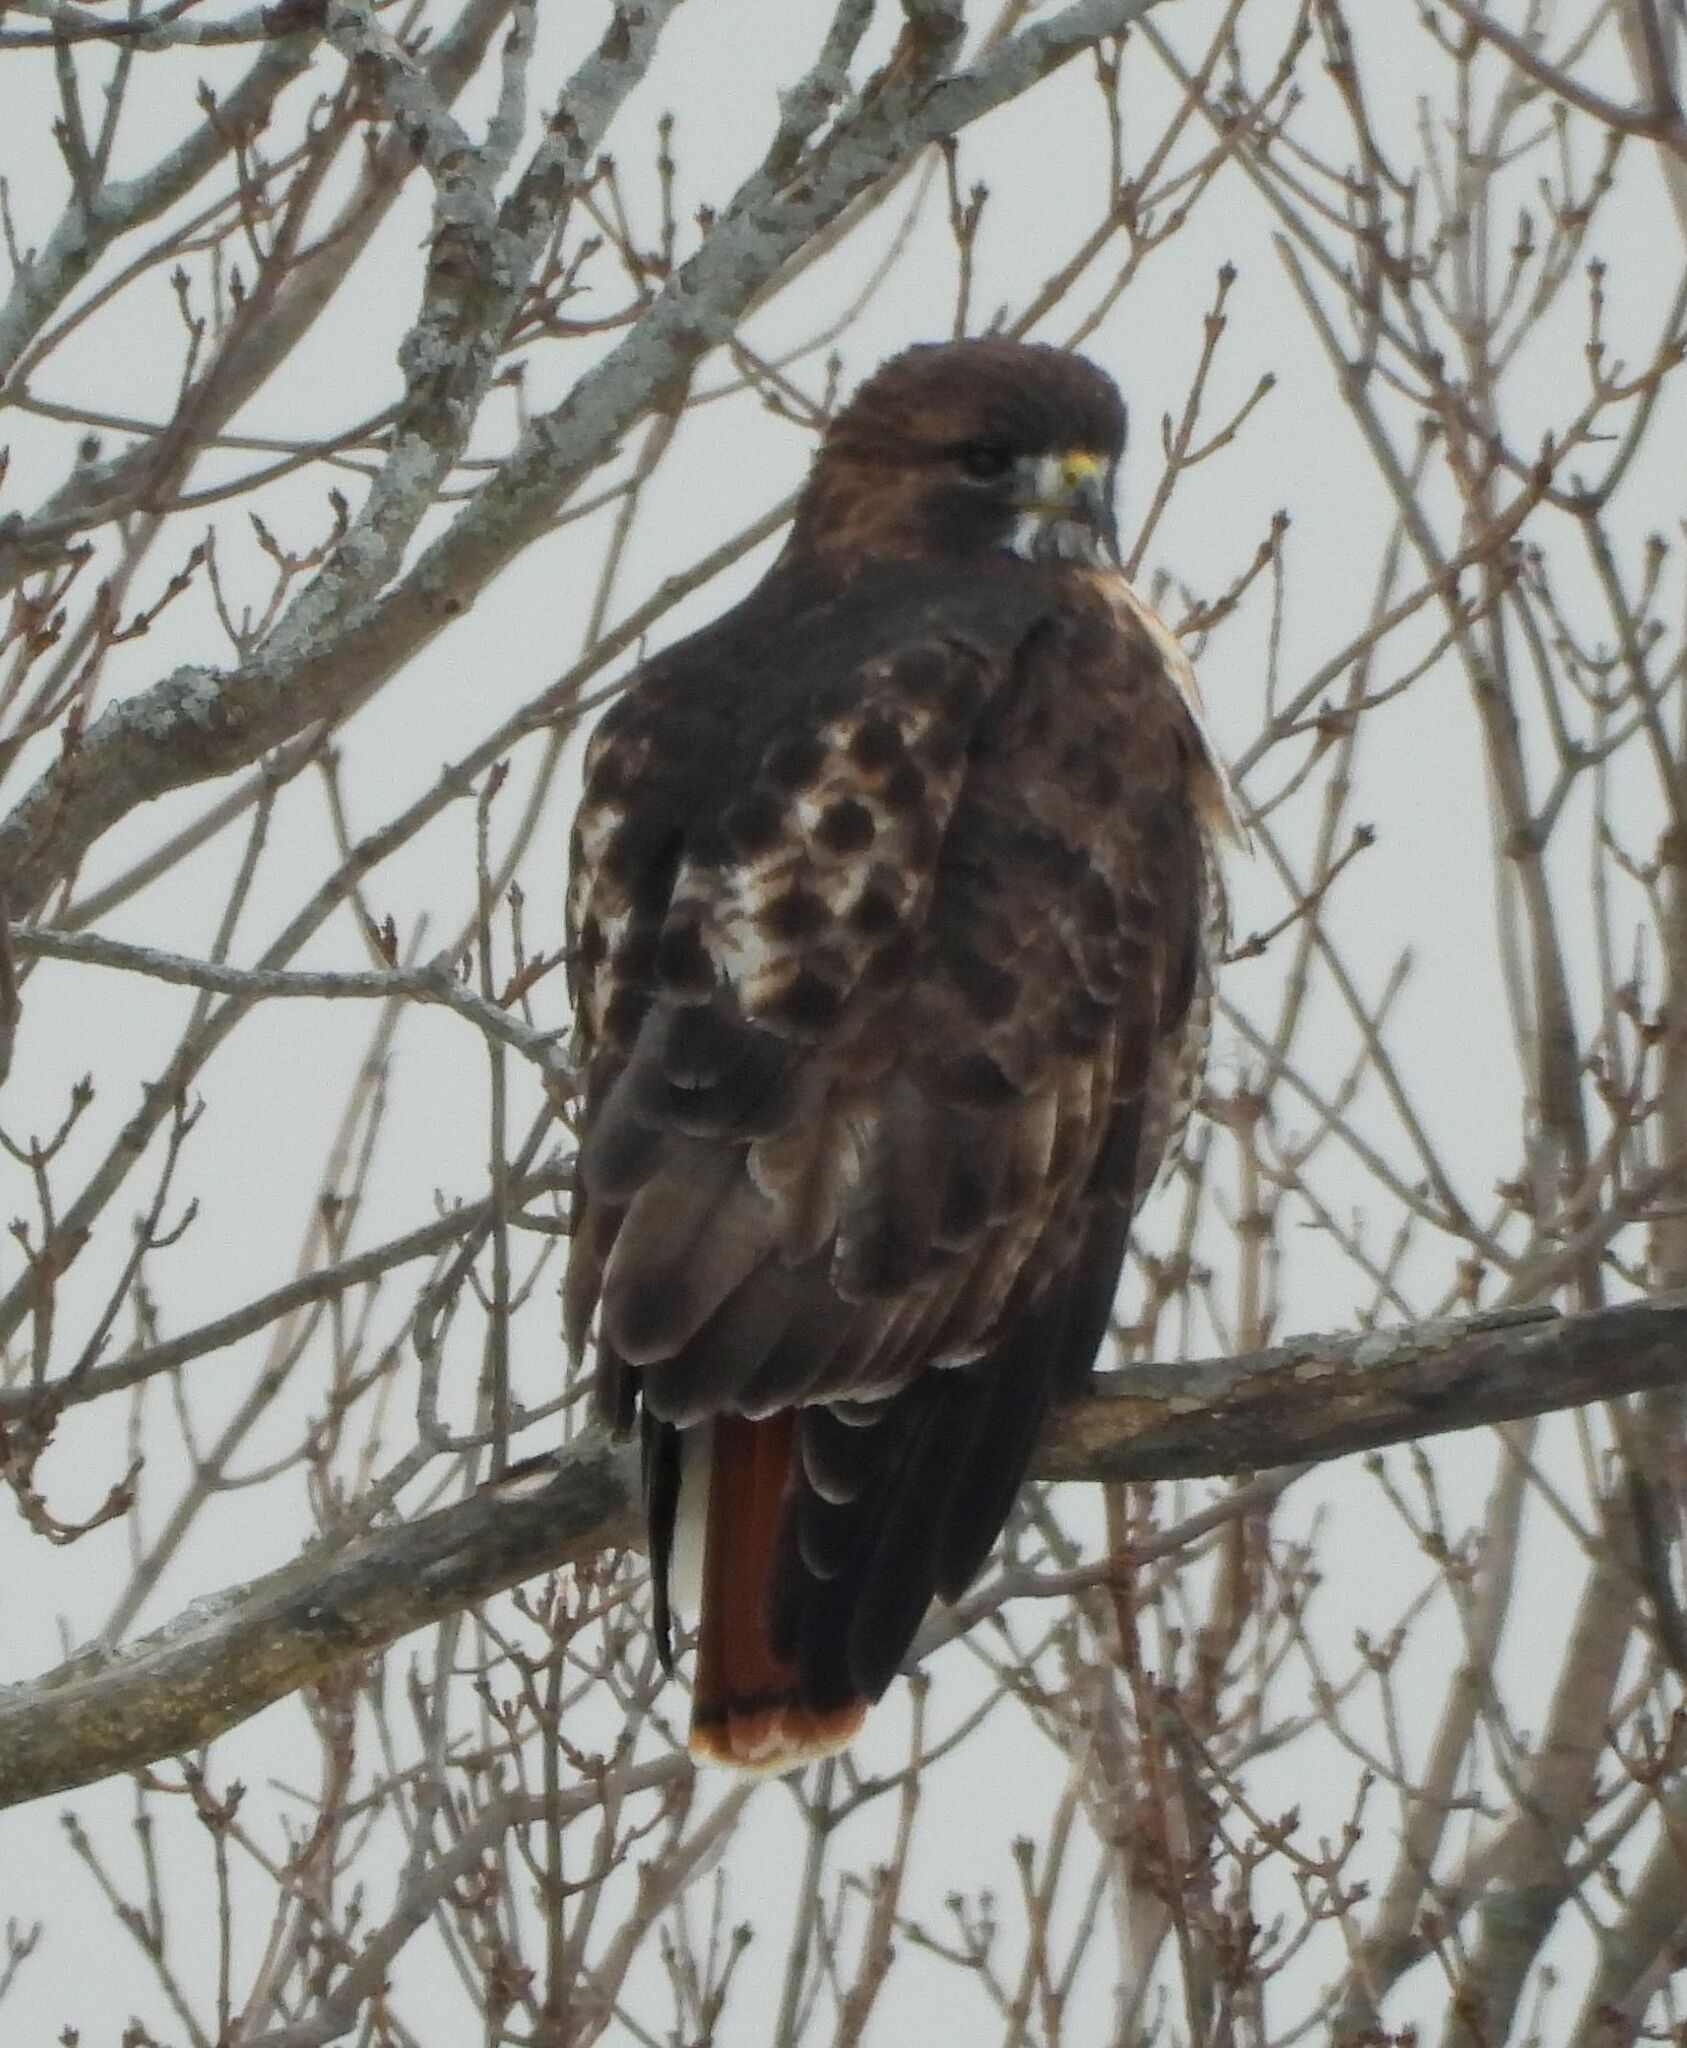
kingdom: Animalia
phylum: Chordata
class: Aves
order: Accipitriformes
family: Accipitridae
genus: Buteo
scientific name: Buteo jamaicensis
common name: Red-tailed hawk
